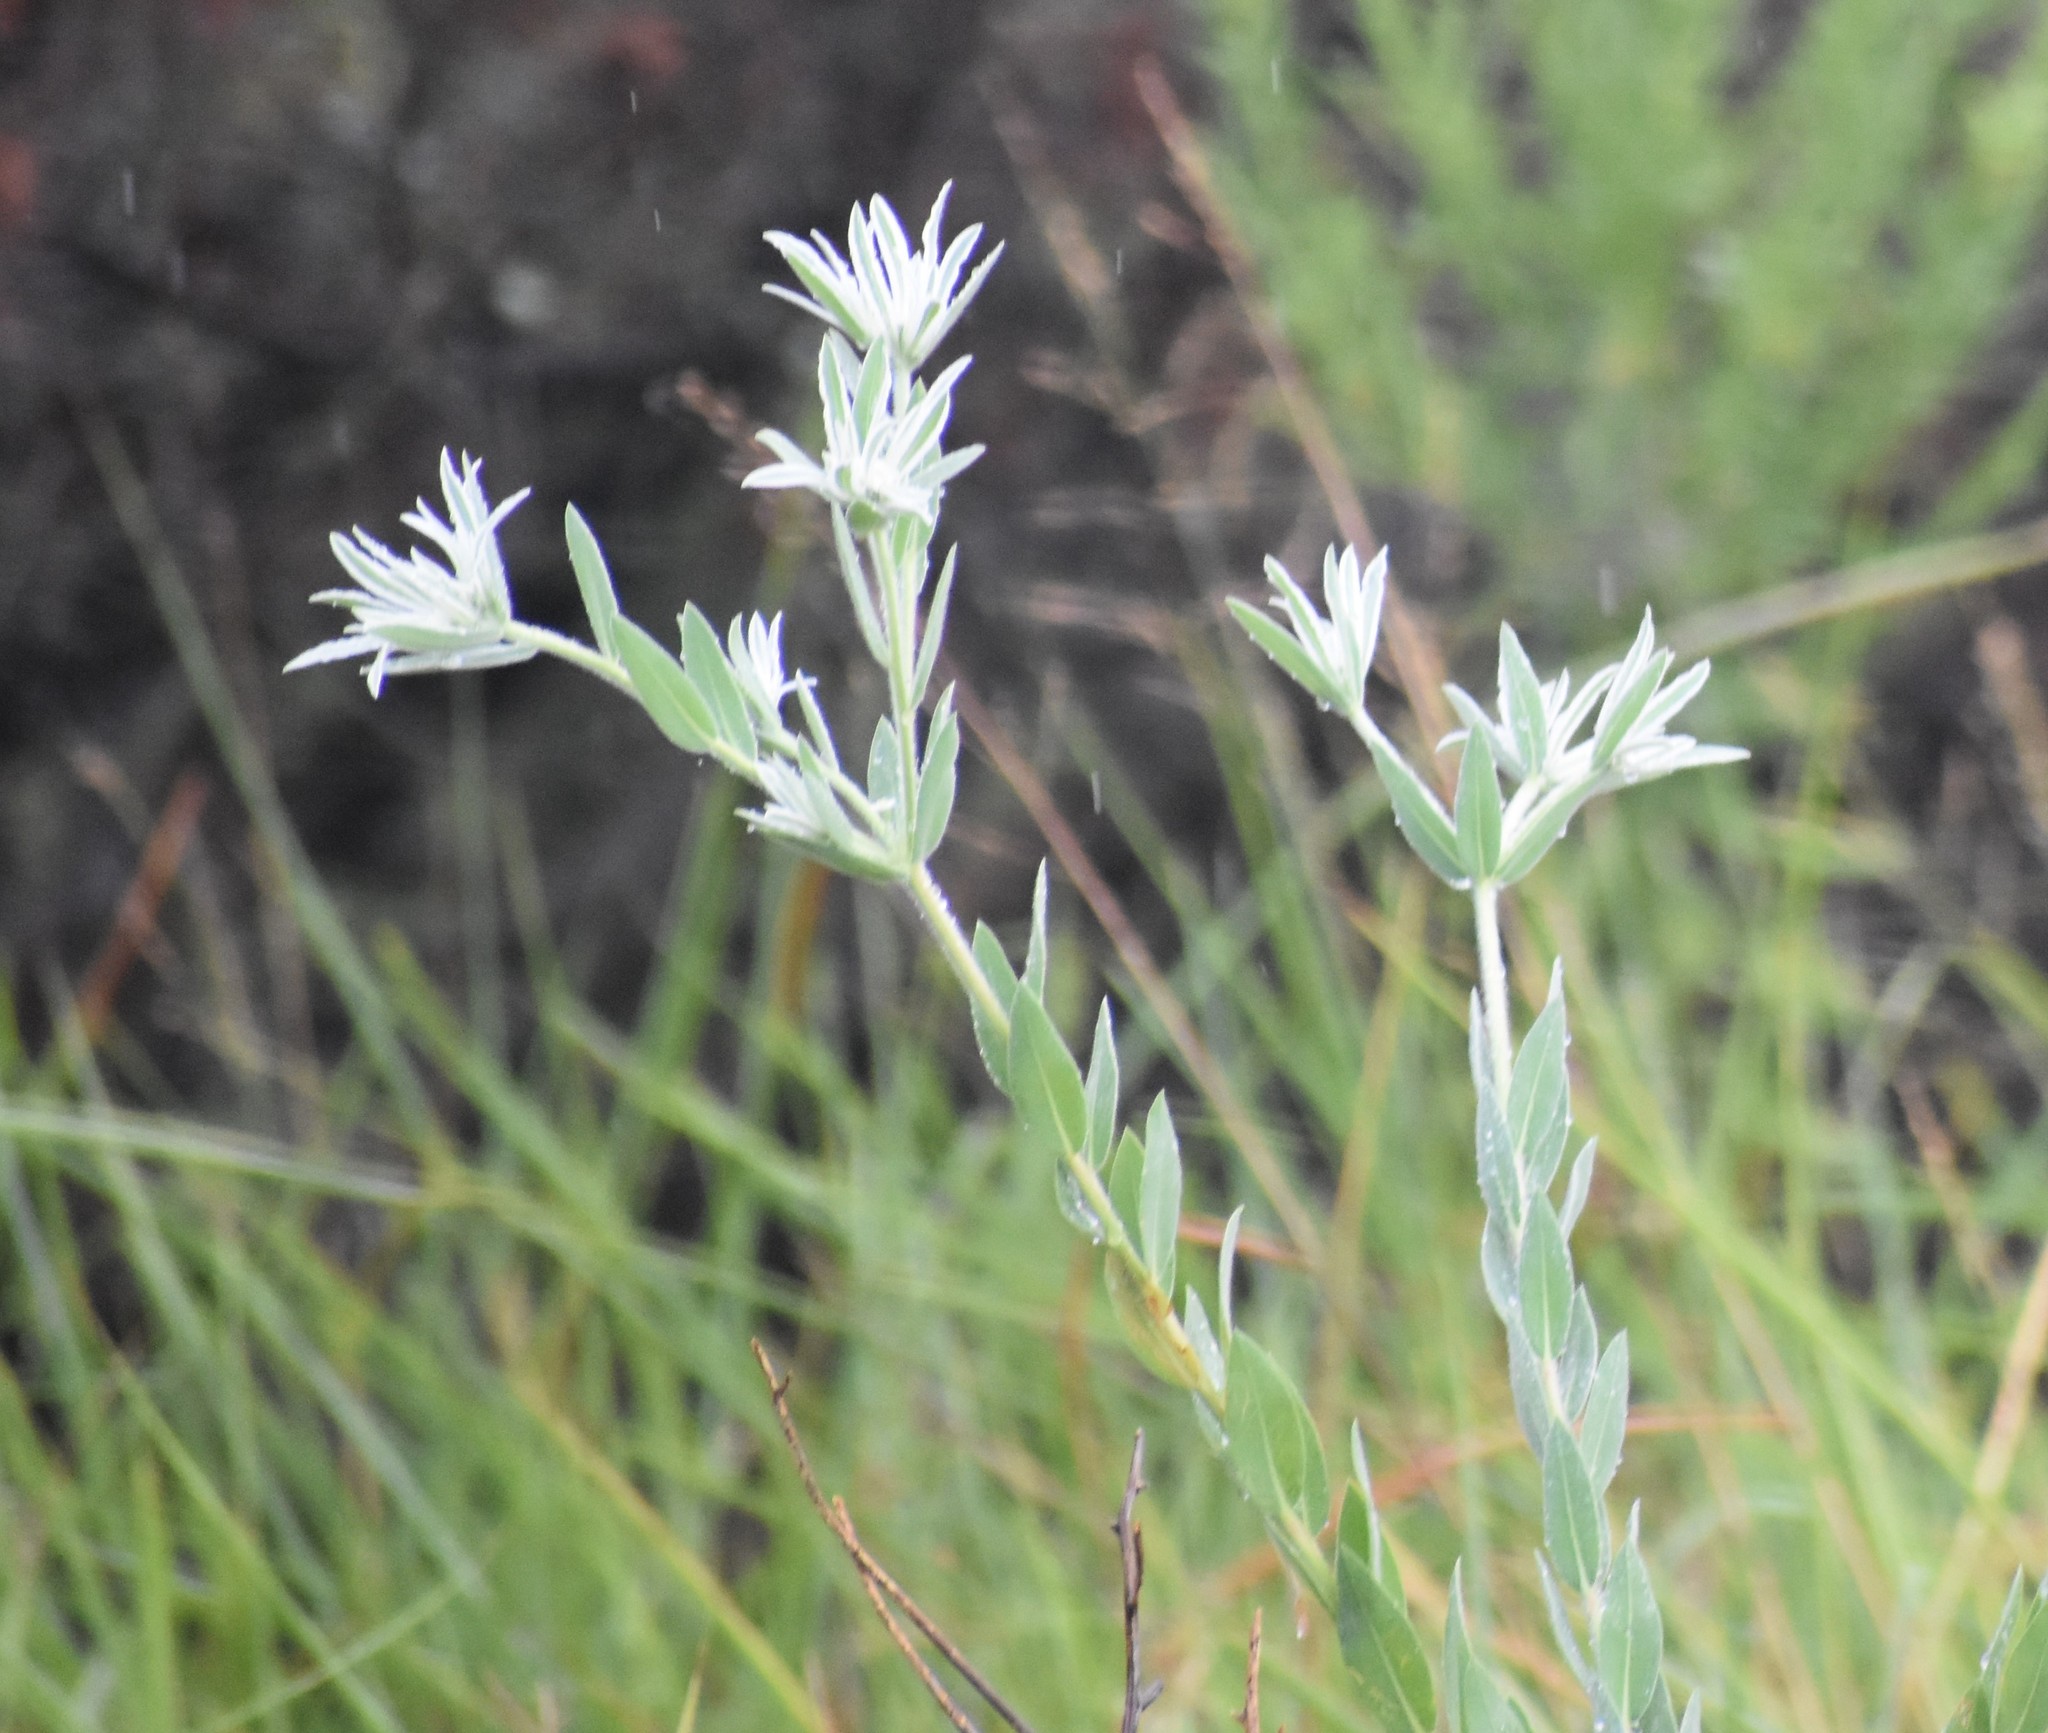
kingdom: Plantae
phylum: Tracheophyta
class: Magnoliopsida
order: Malpighiales
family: Euphorbiaceae
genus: Euphorbia
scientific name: Euphorbia bicolor
